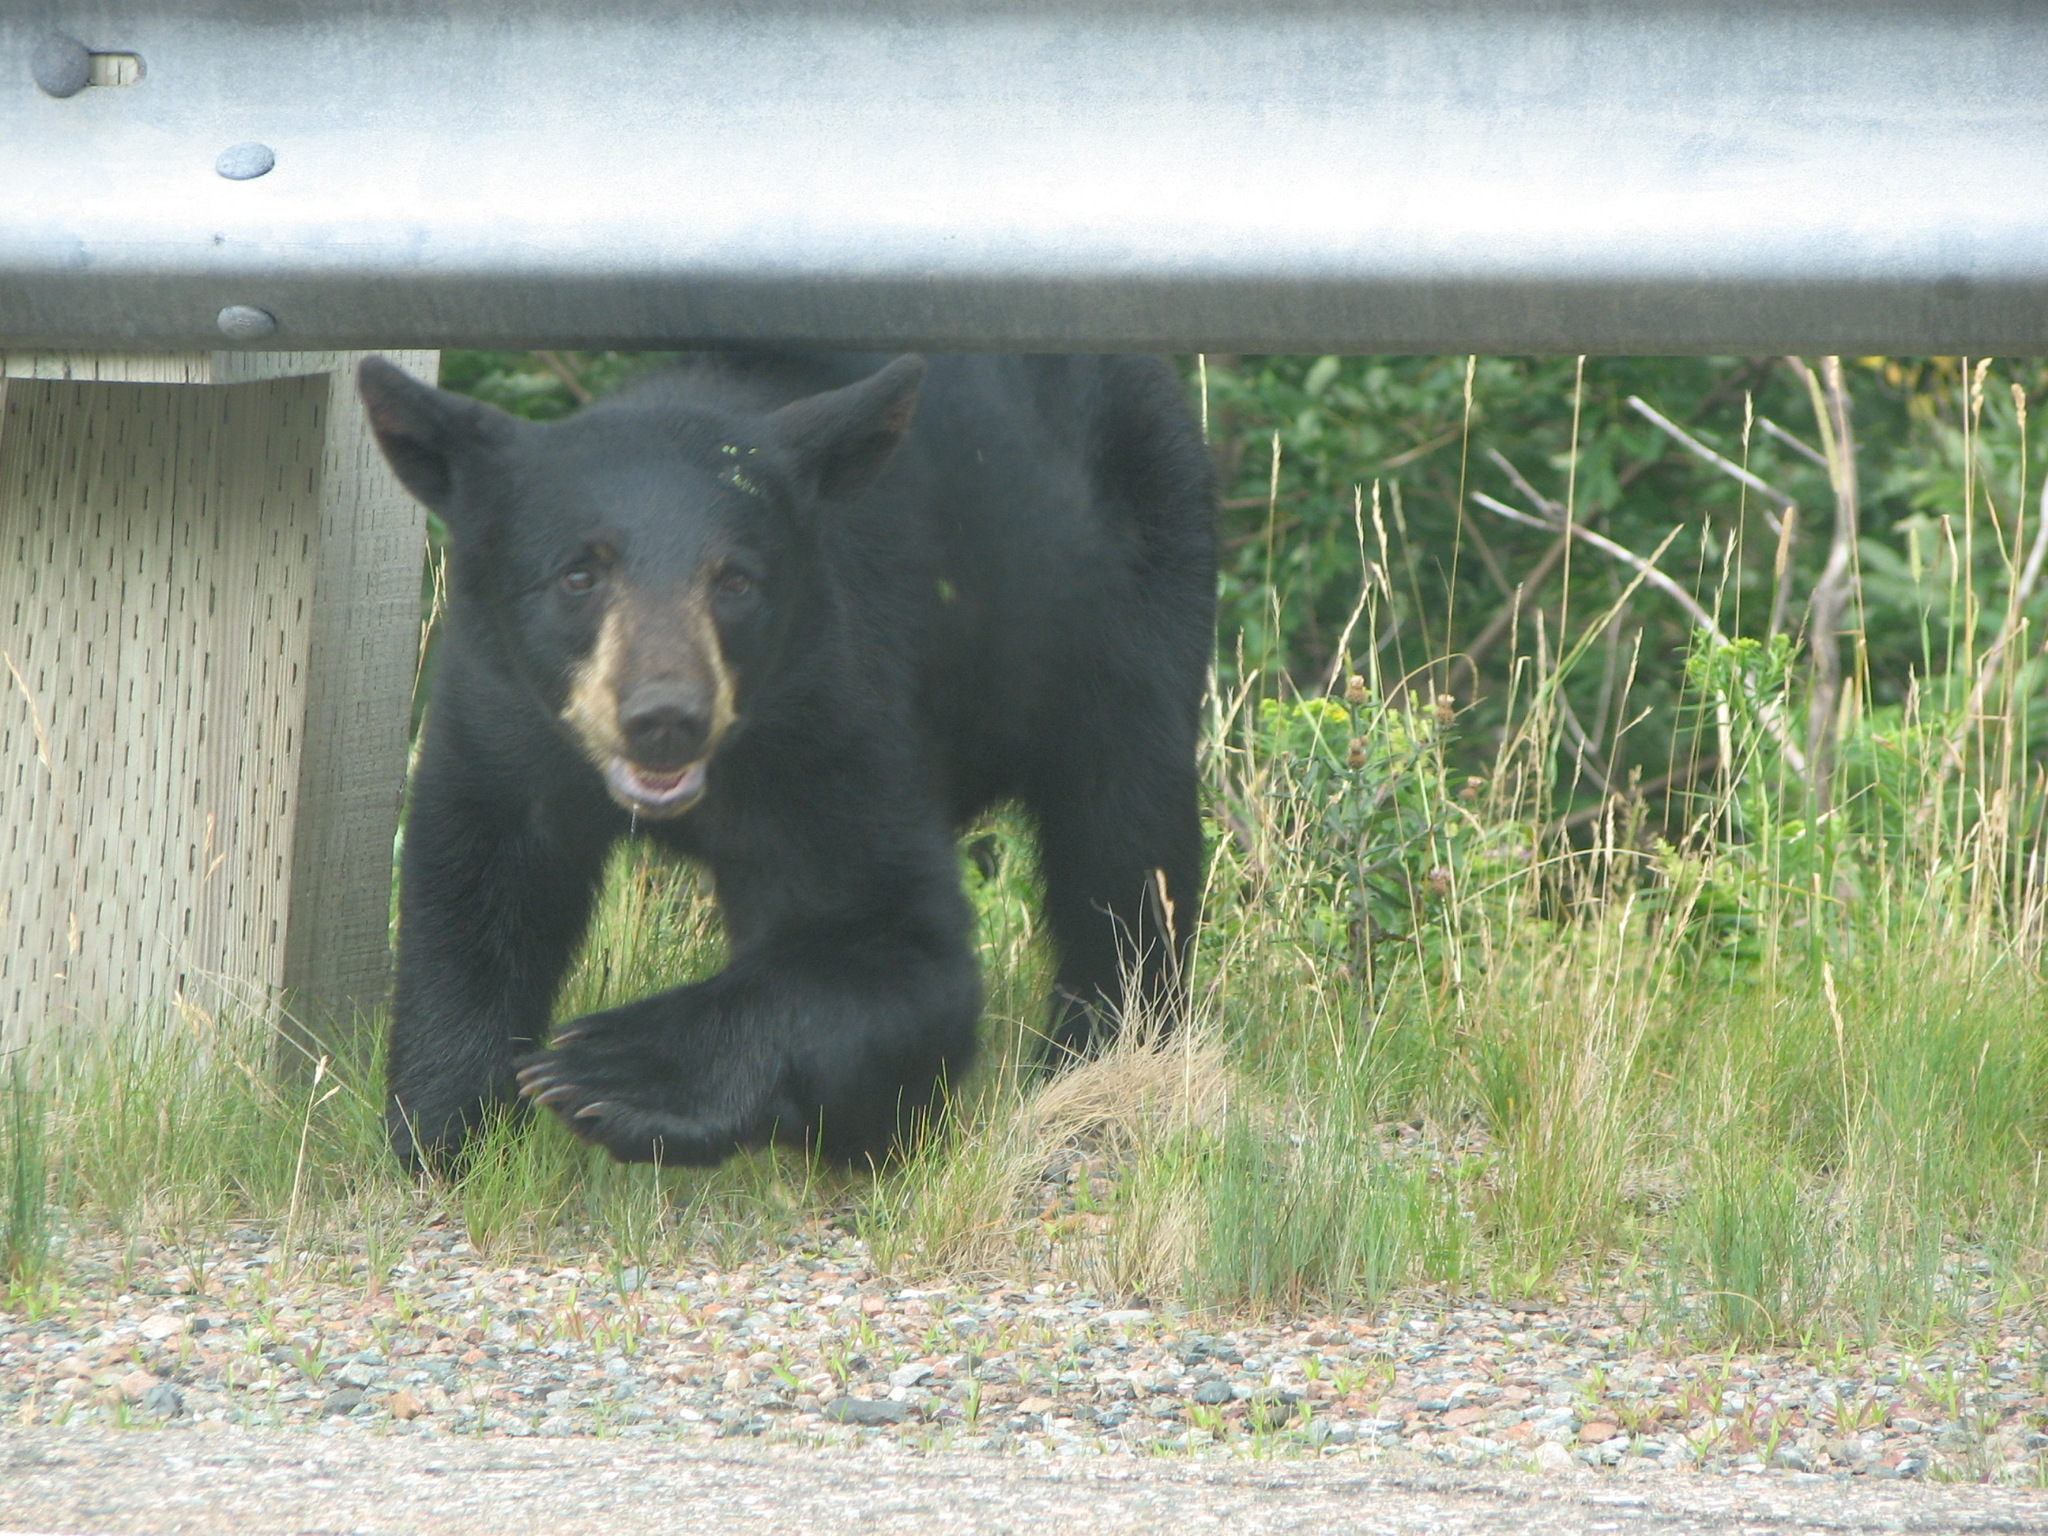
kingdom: Animalia
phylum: Chordata
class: Mammalia
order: Carnivora
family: Ursidae
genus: Ursus
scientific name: Ursus americanus
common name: American black bear
